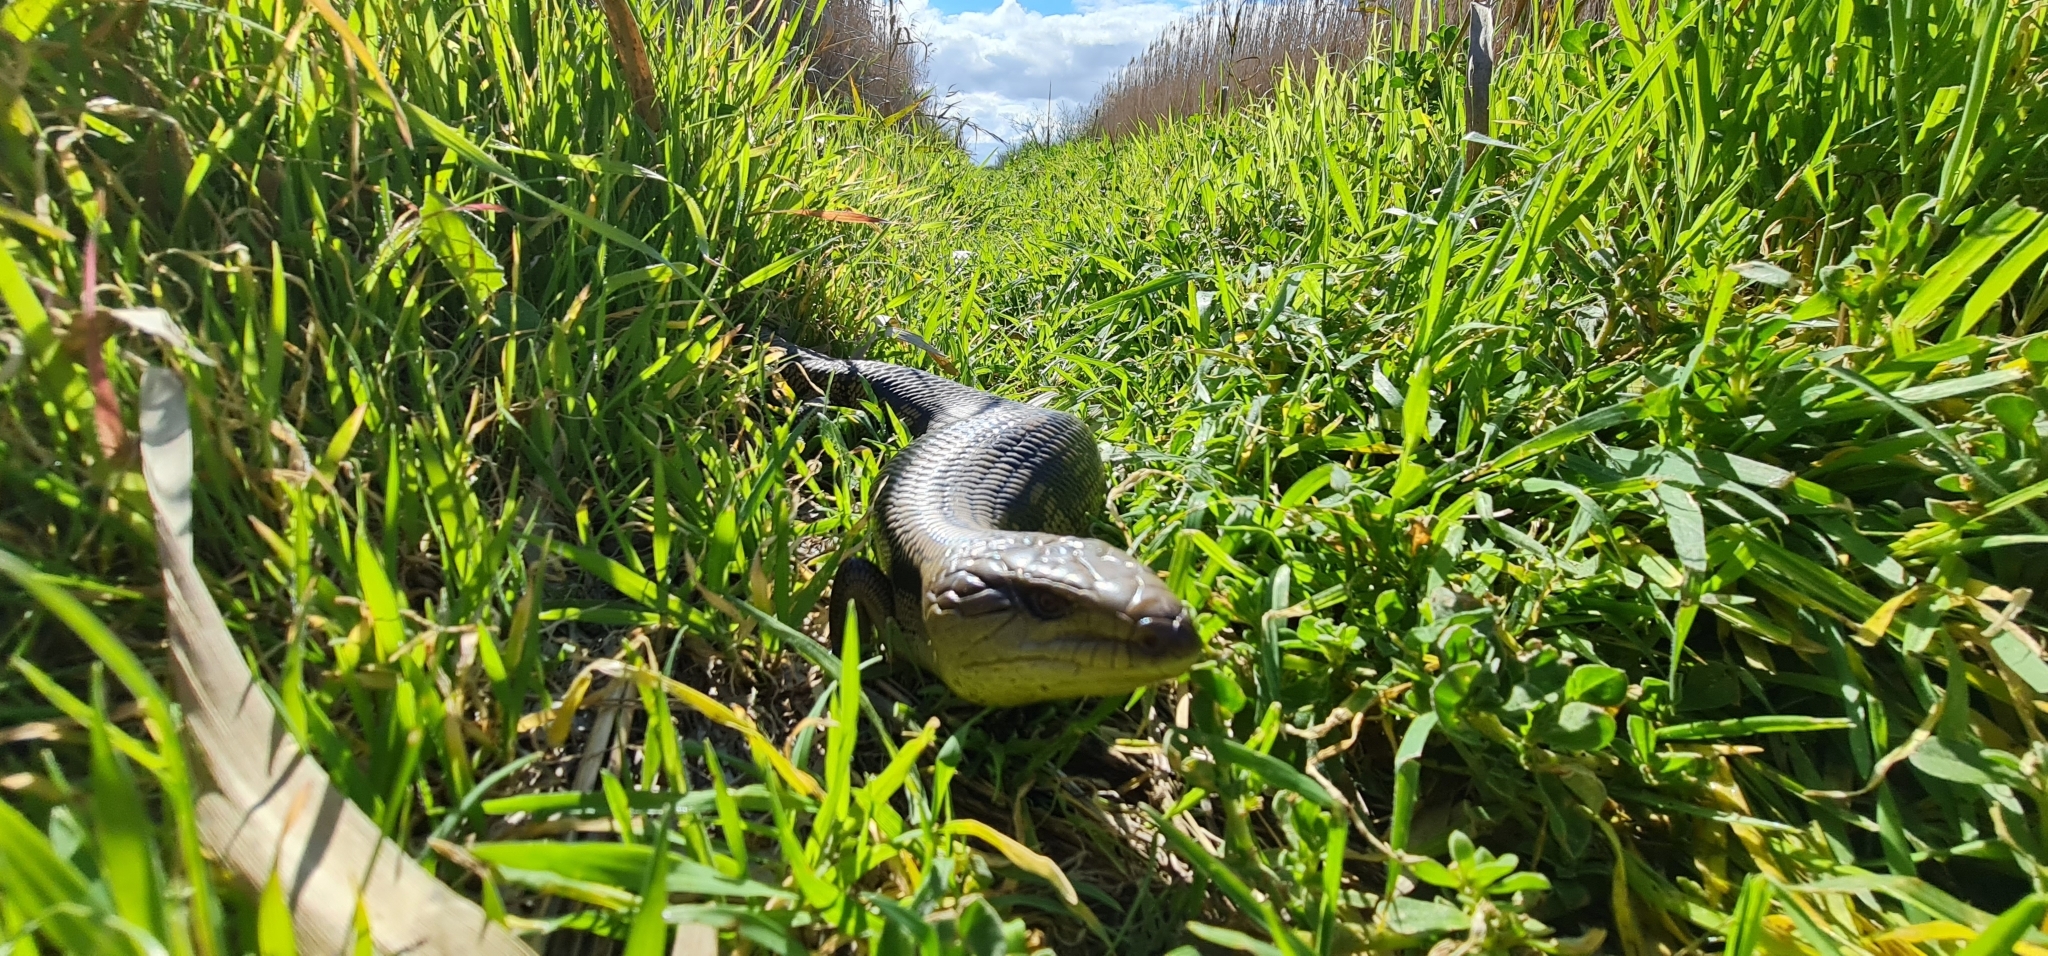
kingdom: Animalia
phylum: Chordata
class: Squamata
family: Scincidae
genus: Tiliqua
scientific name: Tiliqua scincoides
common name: Common bluetongue
